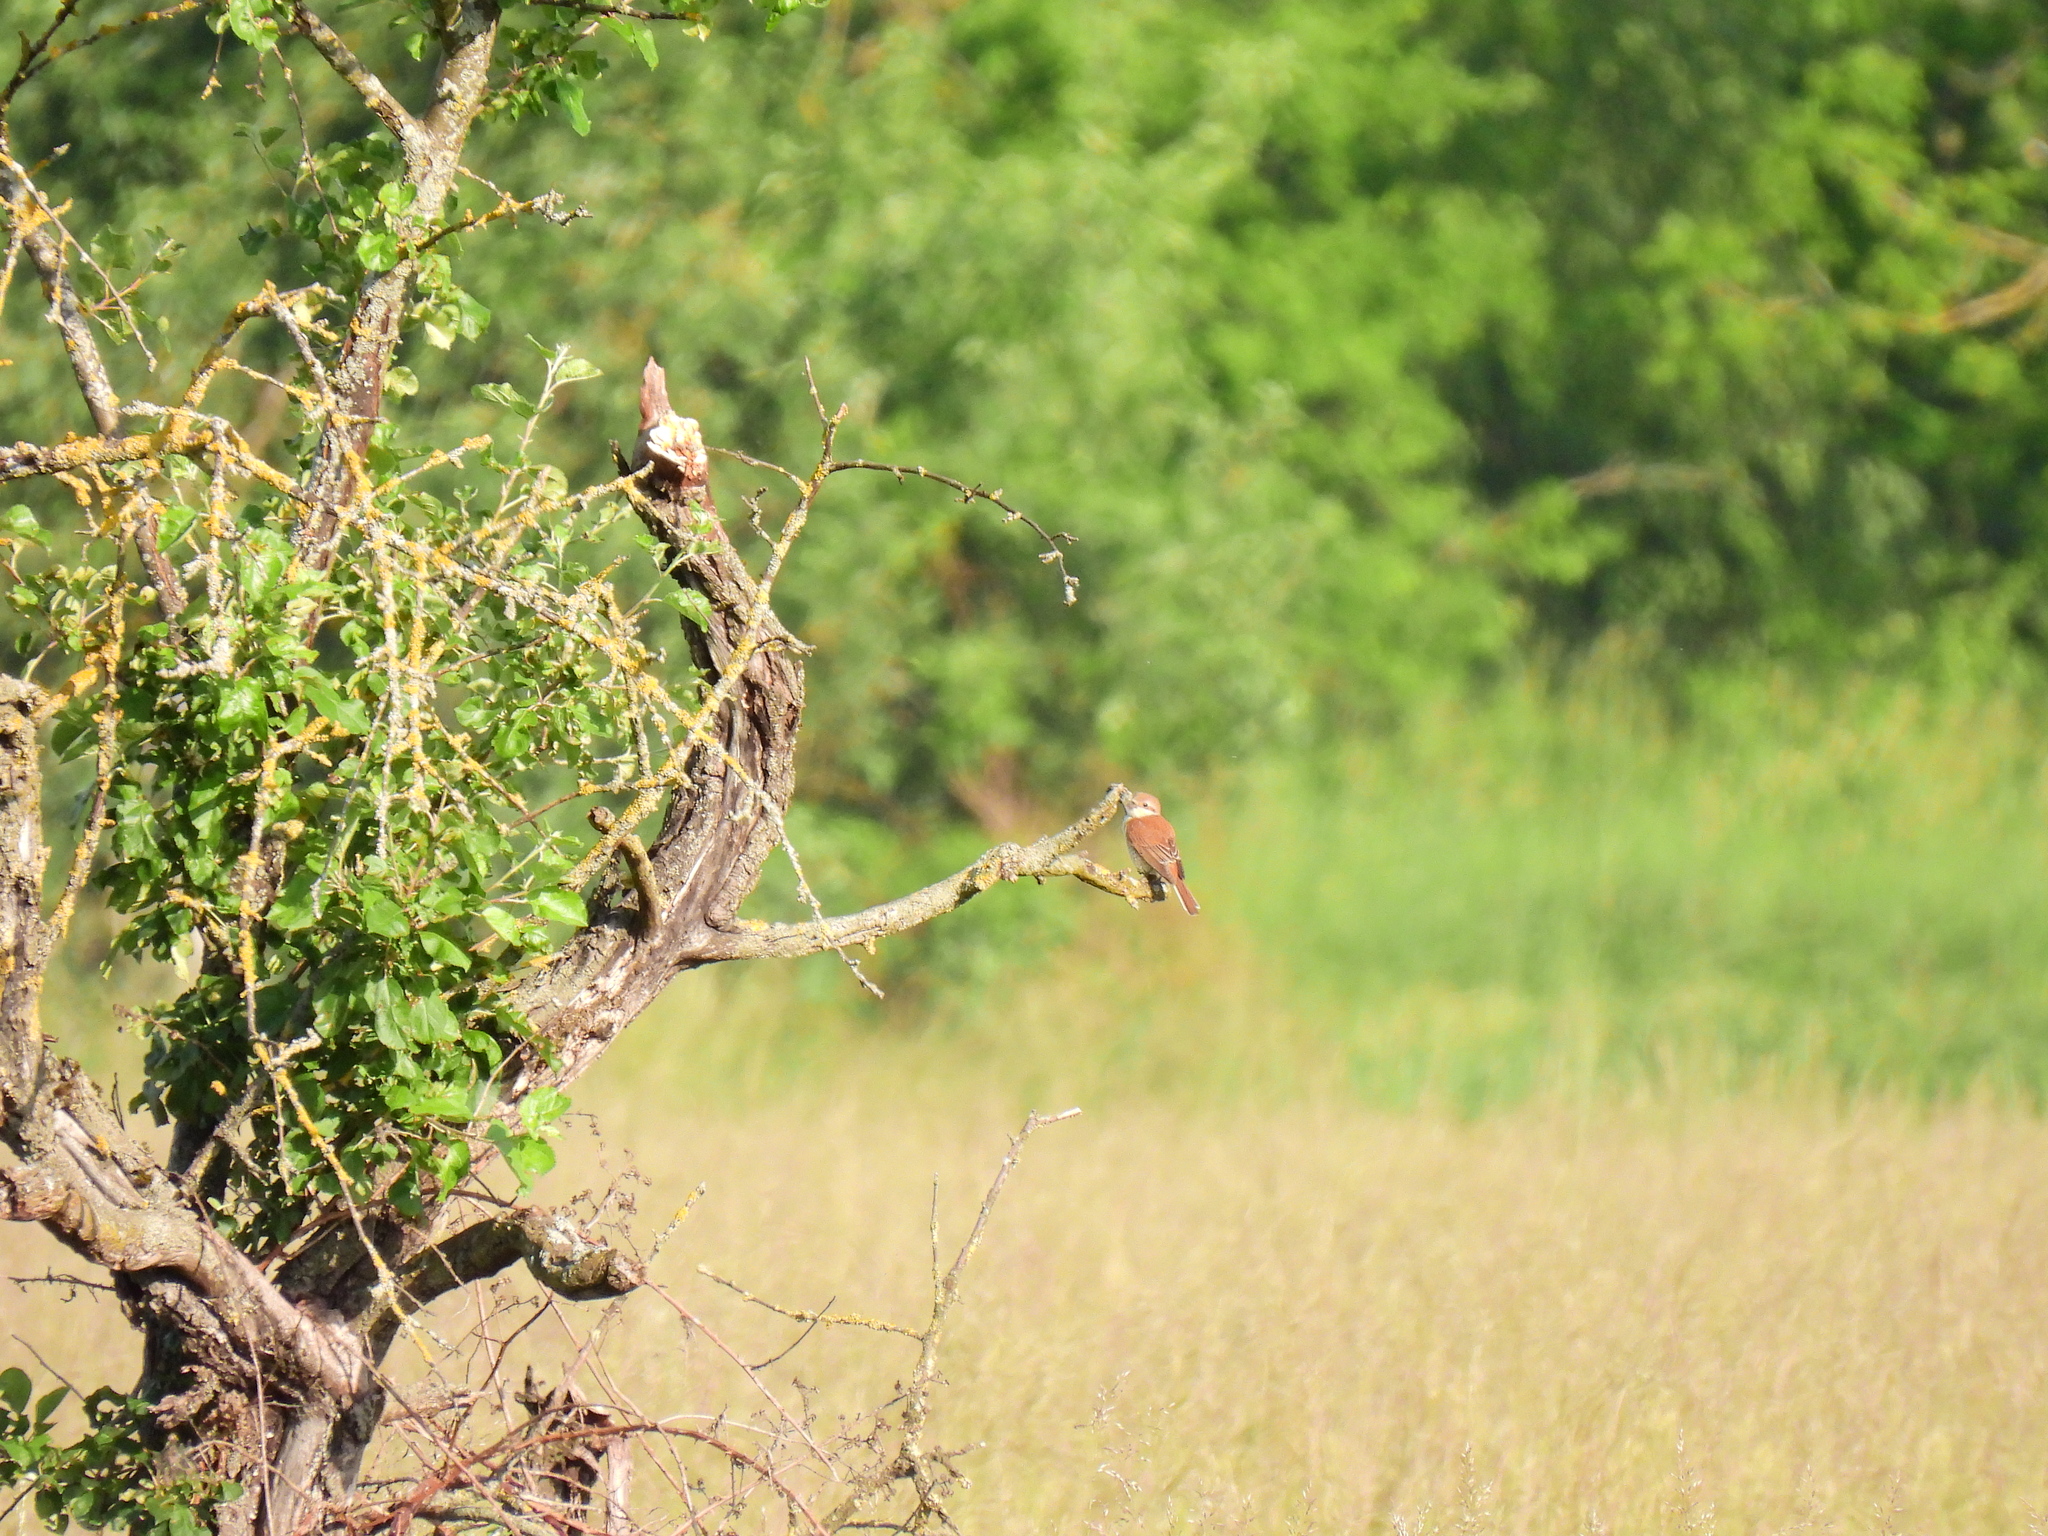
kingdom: Animalia
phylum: Chordata
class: Aves
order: Passeriformes
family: Laniidae
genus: Lanius
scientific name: Lanius collurio
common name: Red-backed shrike
